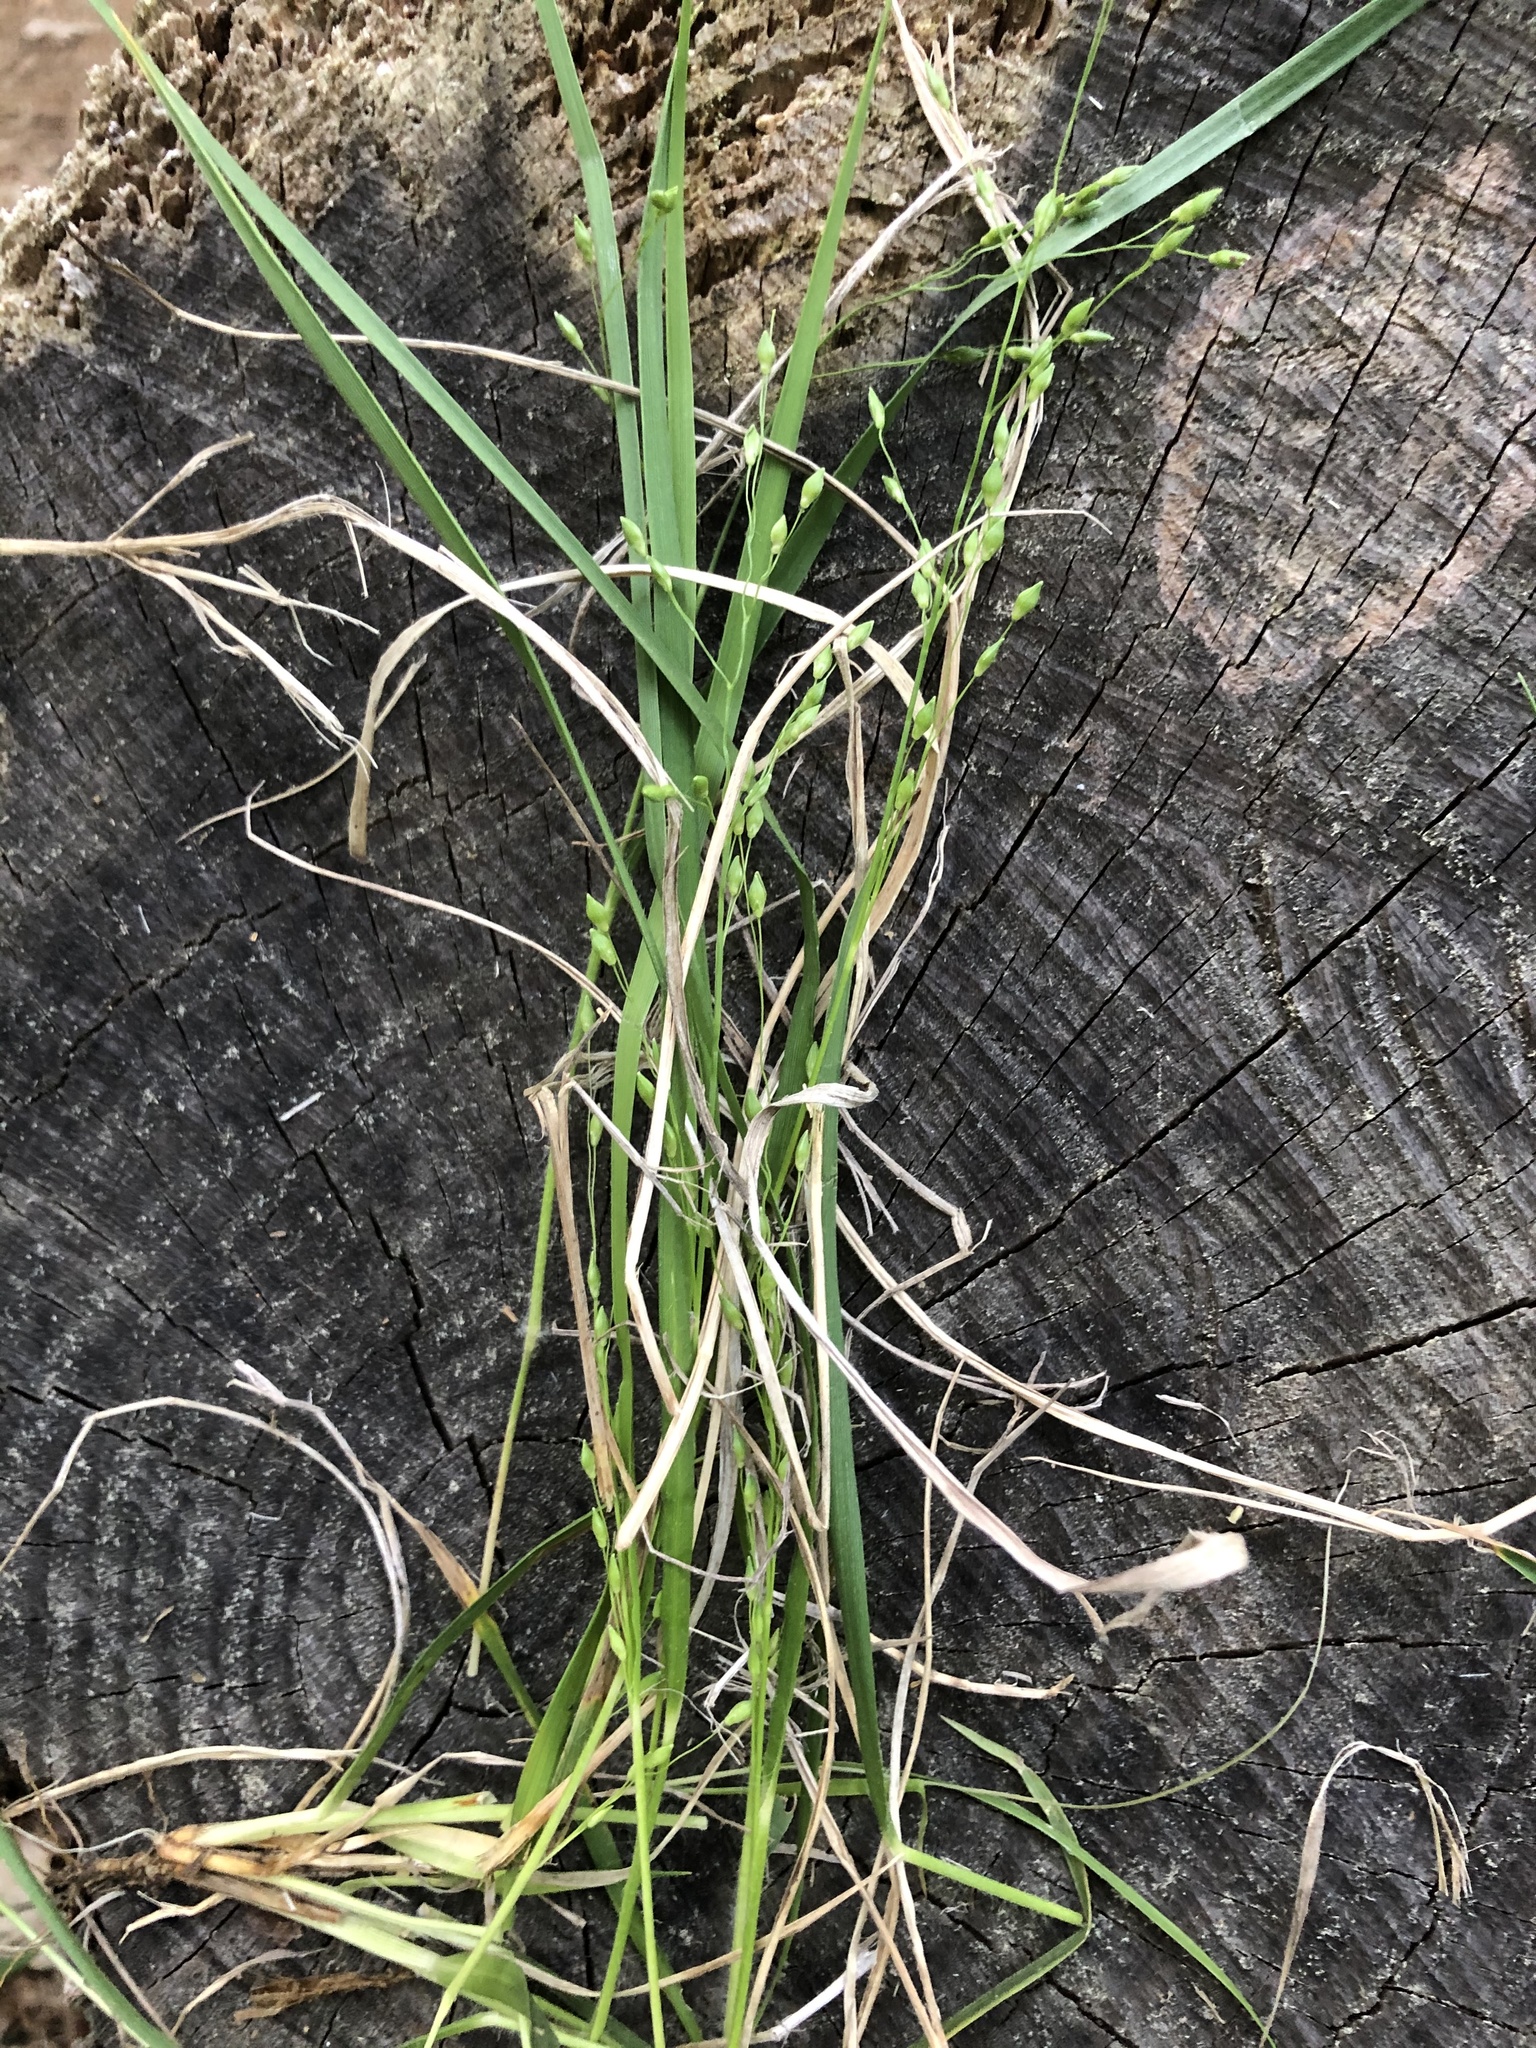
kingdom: Plantae
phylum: Tracheophyta
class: Liliopsida
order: Poales
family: Poaceae
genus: Dichanthelium
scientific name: Dichanthelium depauperatum
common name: Depauperate panicgrass
